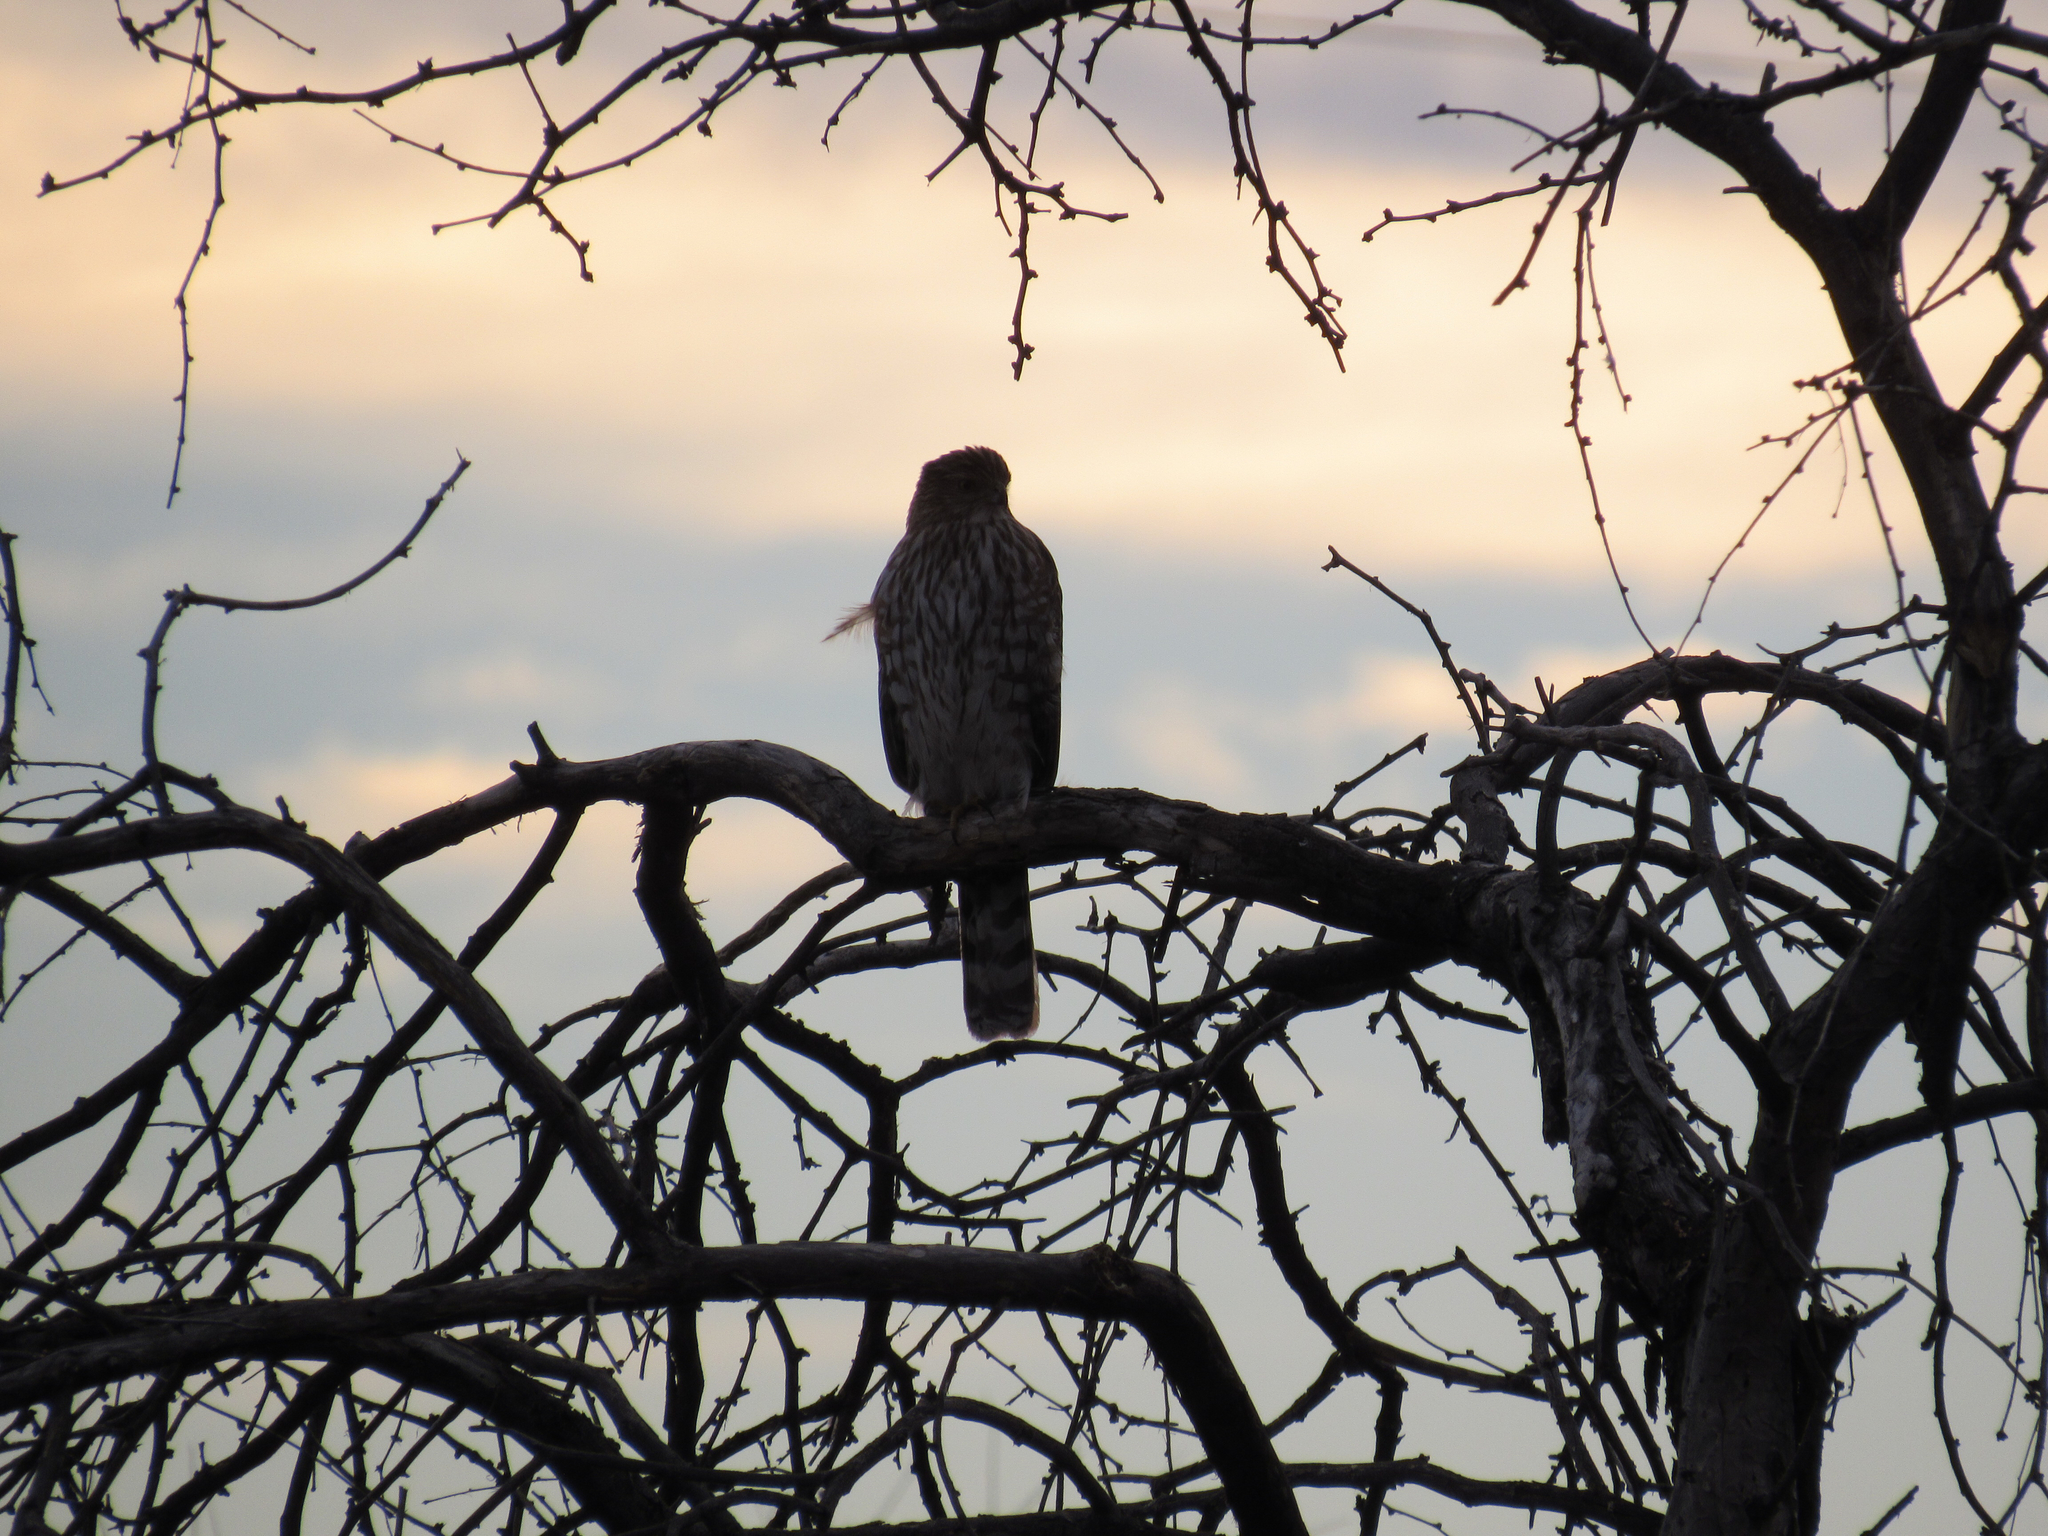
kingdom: Animalia
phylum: Chordata
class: Aves
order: Accipitriformes
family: Accipitridae
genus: Accipiter
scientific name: Accipiter cooperii
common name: Cooper's hawk
